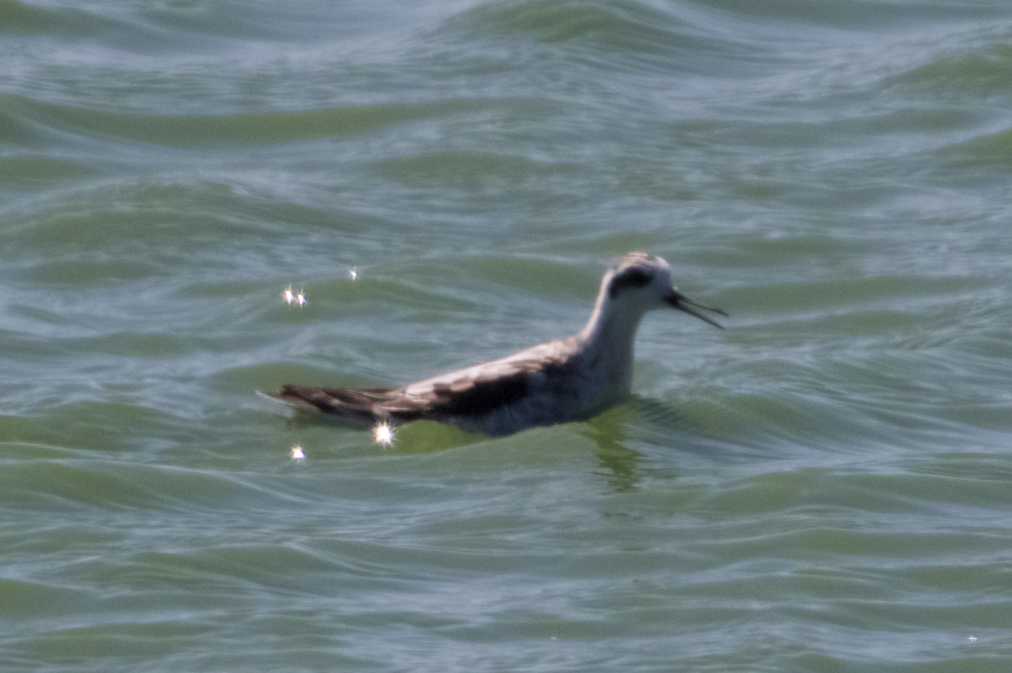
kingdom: Animalia
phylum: Chordata
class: Aves
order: Charadriiformes
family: Scolopacidae
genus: Phalaropus
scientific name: Phalaropus lobatus
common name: Red-necked phalarope
